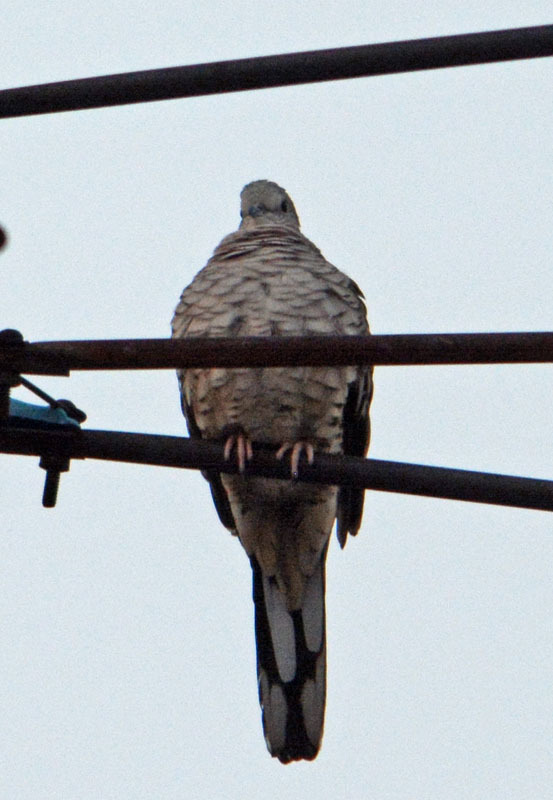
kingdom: Animalia
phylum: Chordata
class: Aves
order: Columbiformes
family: Columbidae
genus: Columbina
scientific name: Columbina inca
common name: Inca dove
